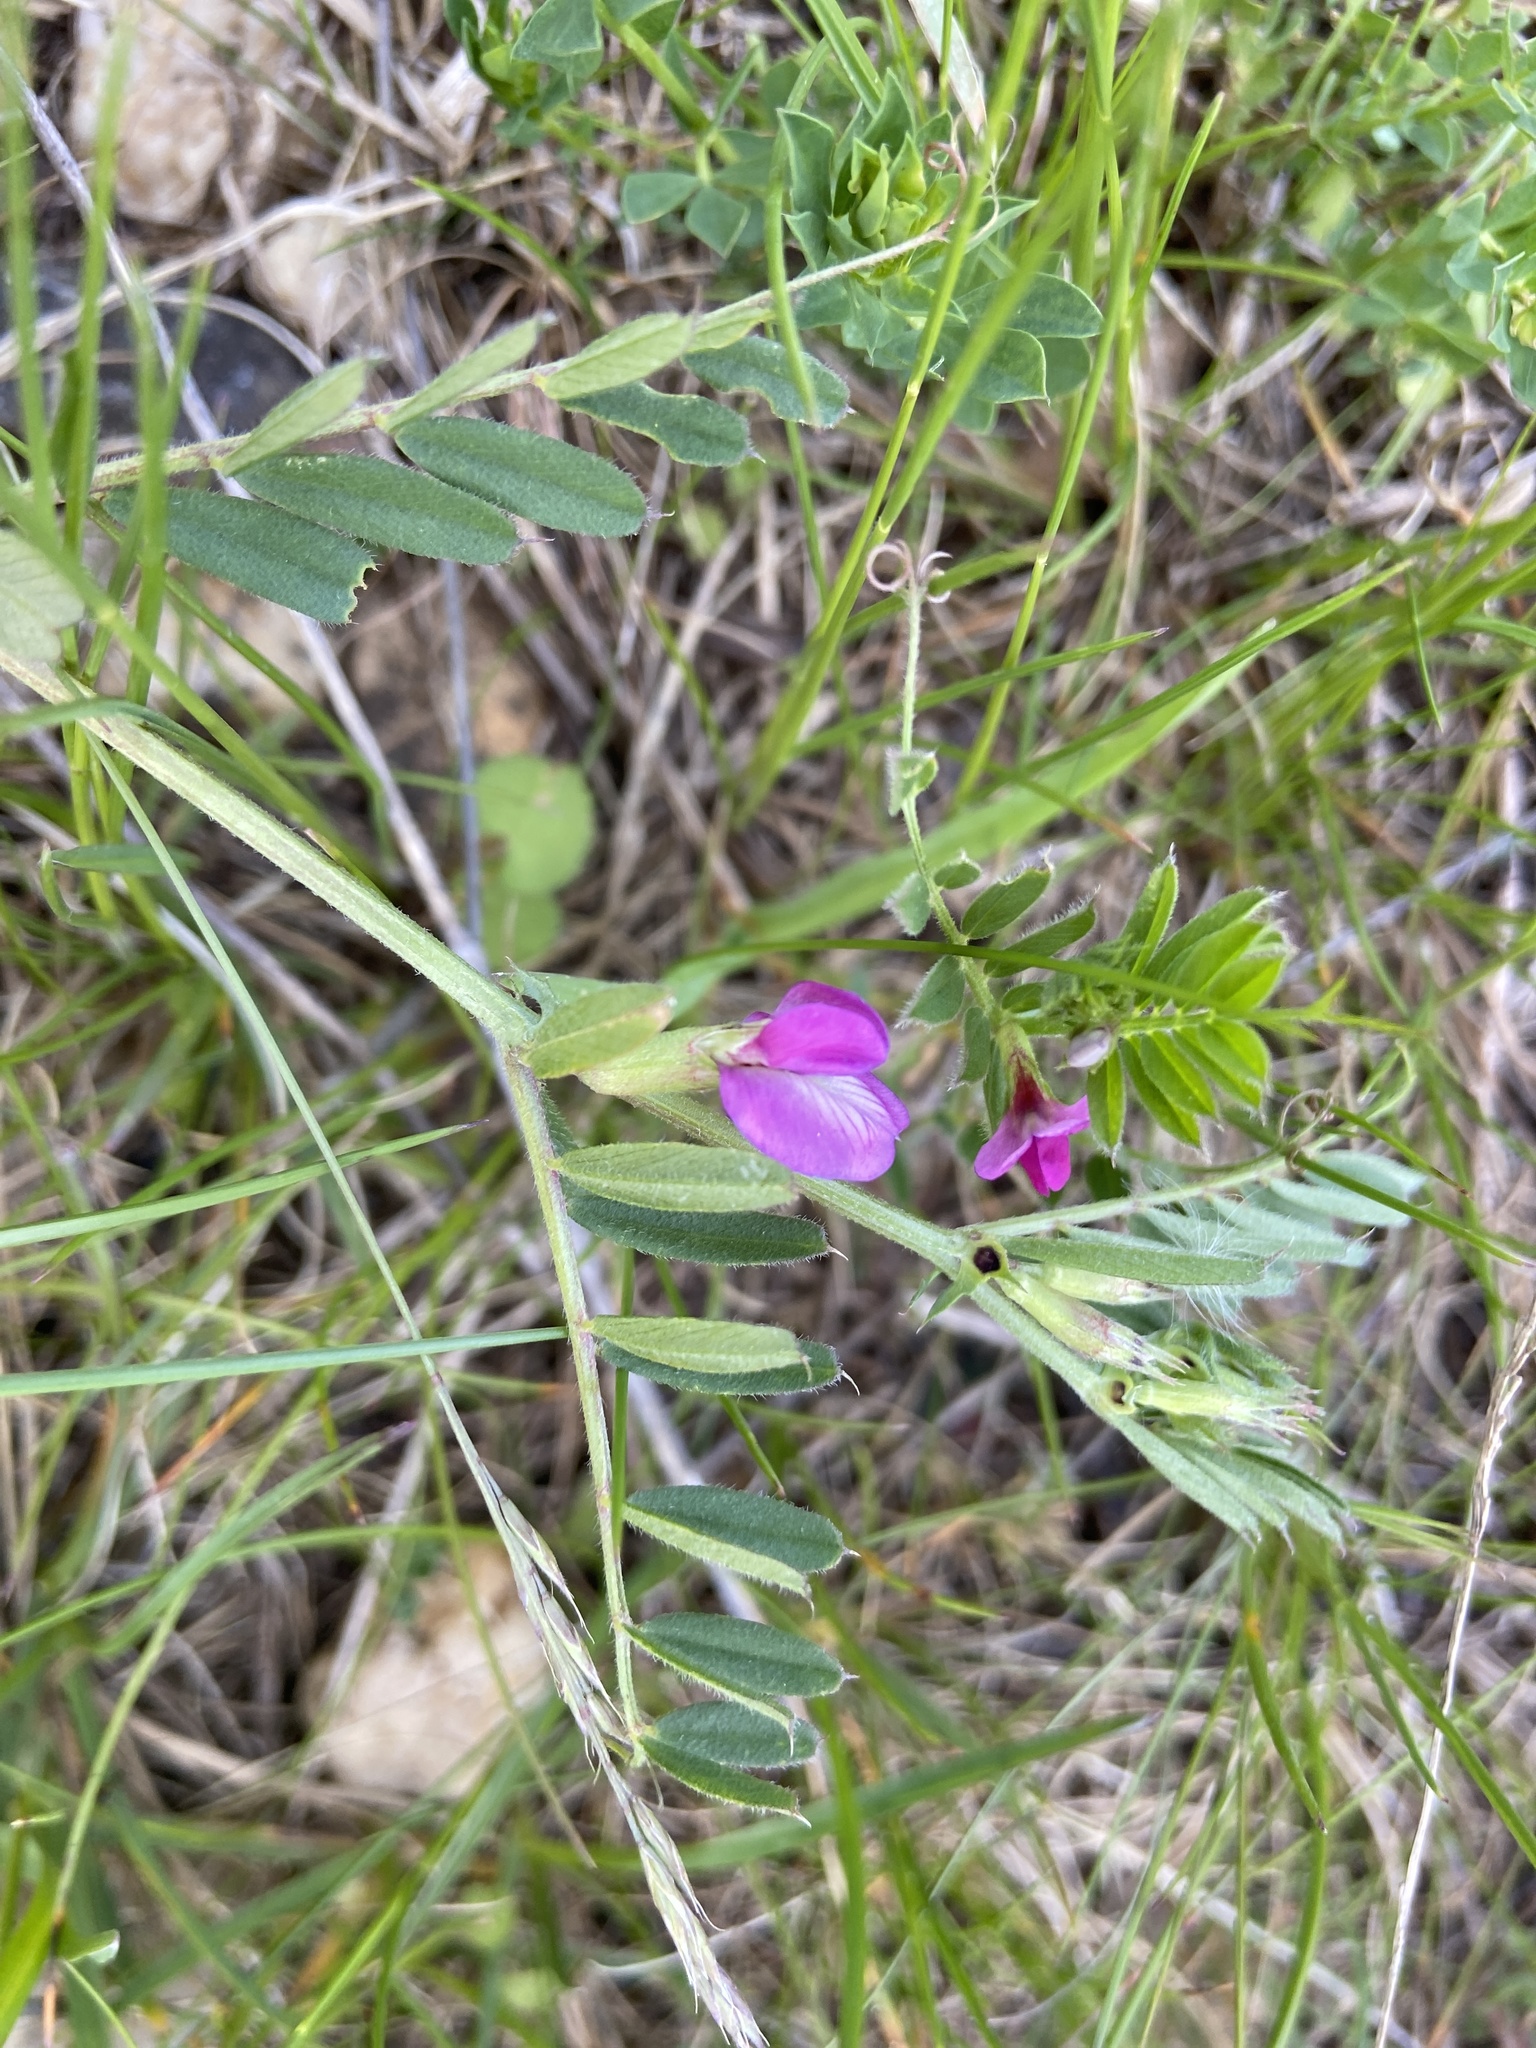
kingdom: Plantae
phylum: Tracheophyta
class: Magnoliopsida
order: Fabales
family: Fabaceae
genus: Vicia
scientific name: Vicia sativa
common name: Garden vetch
